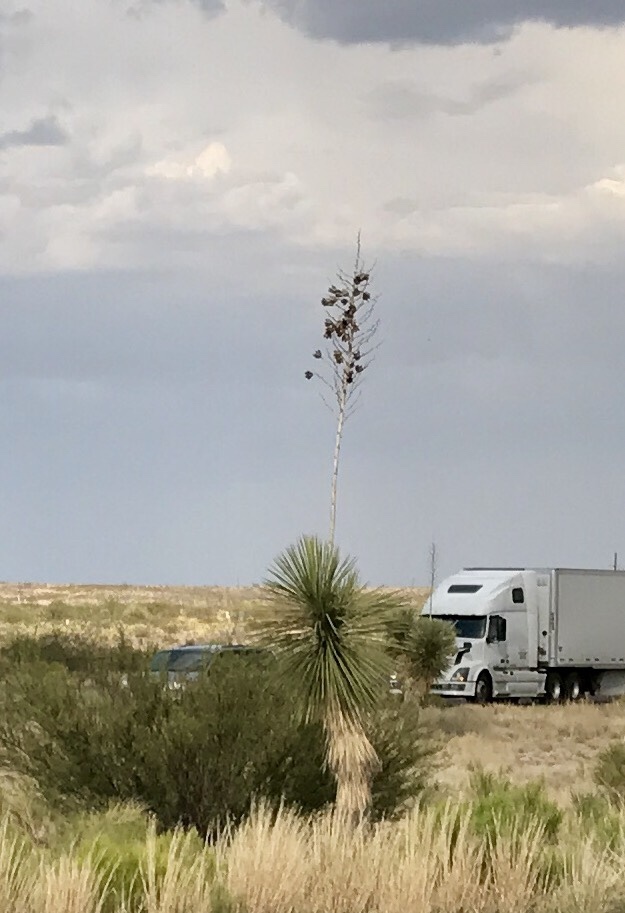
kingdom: Plantae
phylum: Tracheophyta
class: Liliopsida
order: Asparagales
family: Asparagaceae
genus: Yucca
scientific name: Yucca elata
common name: Palmella
